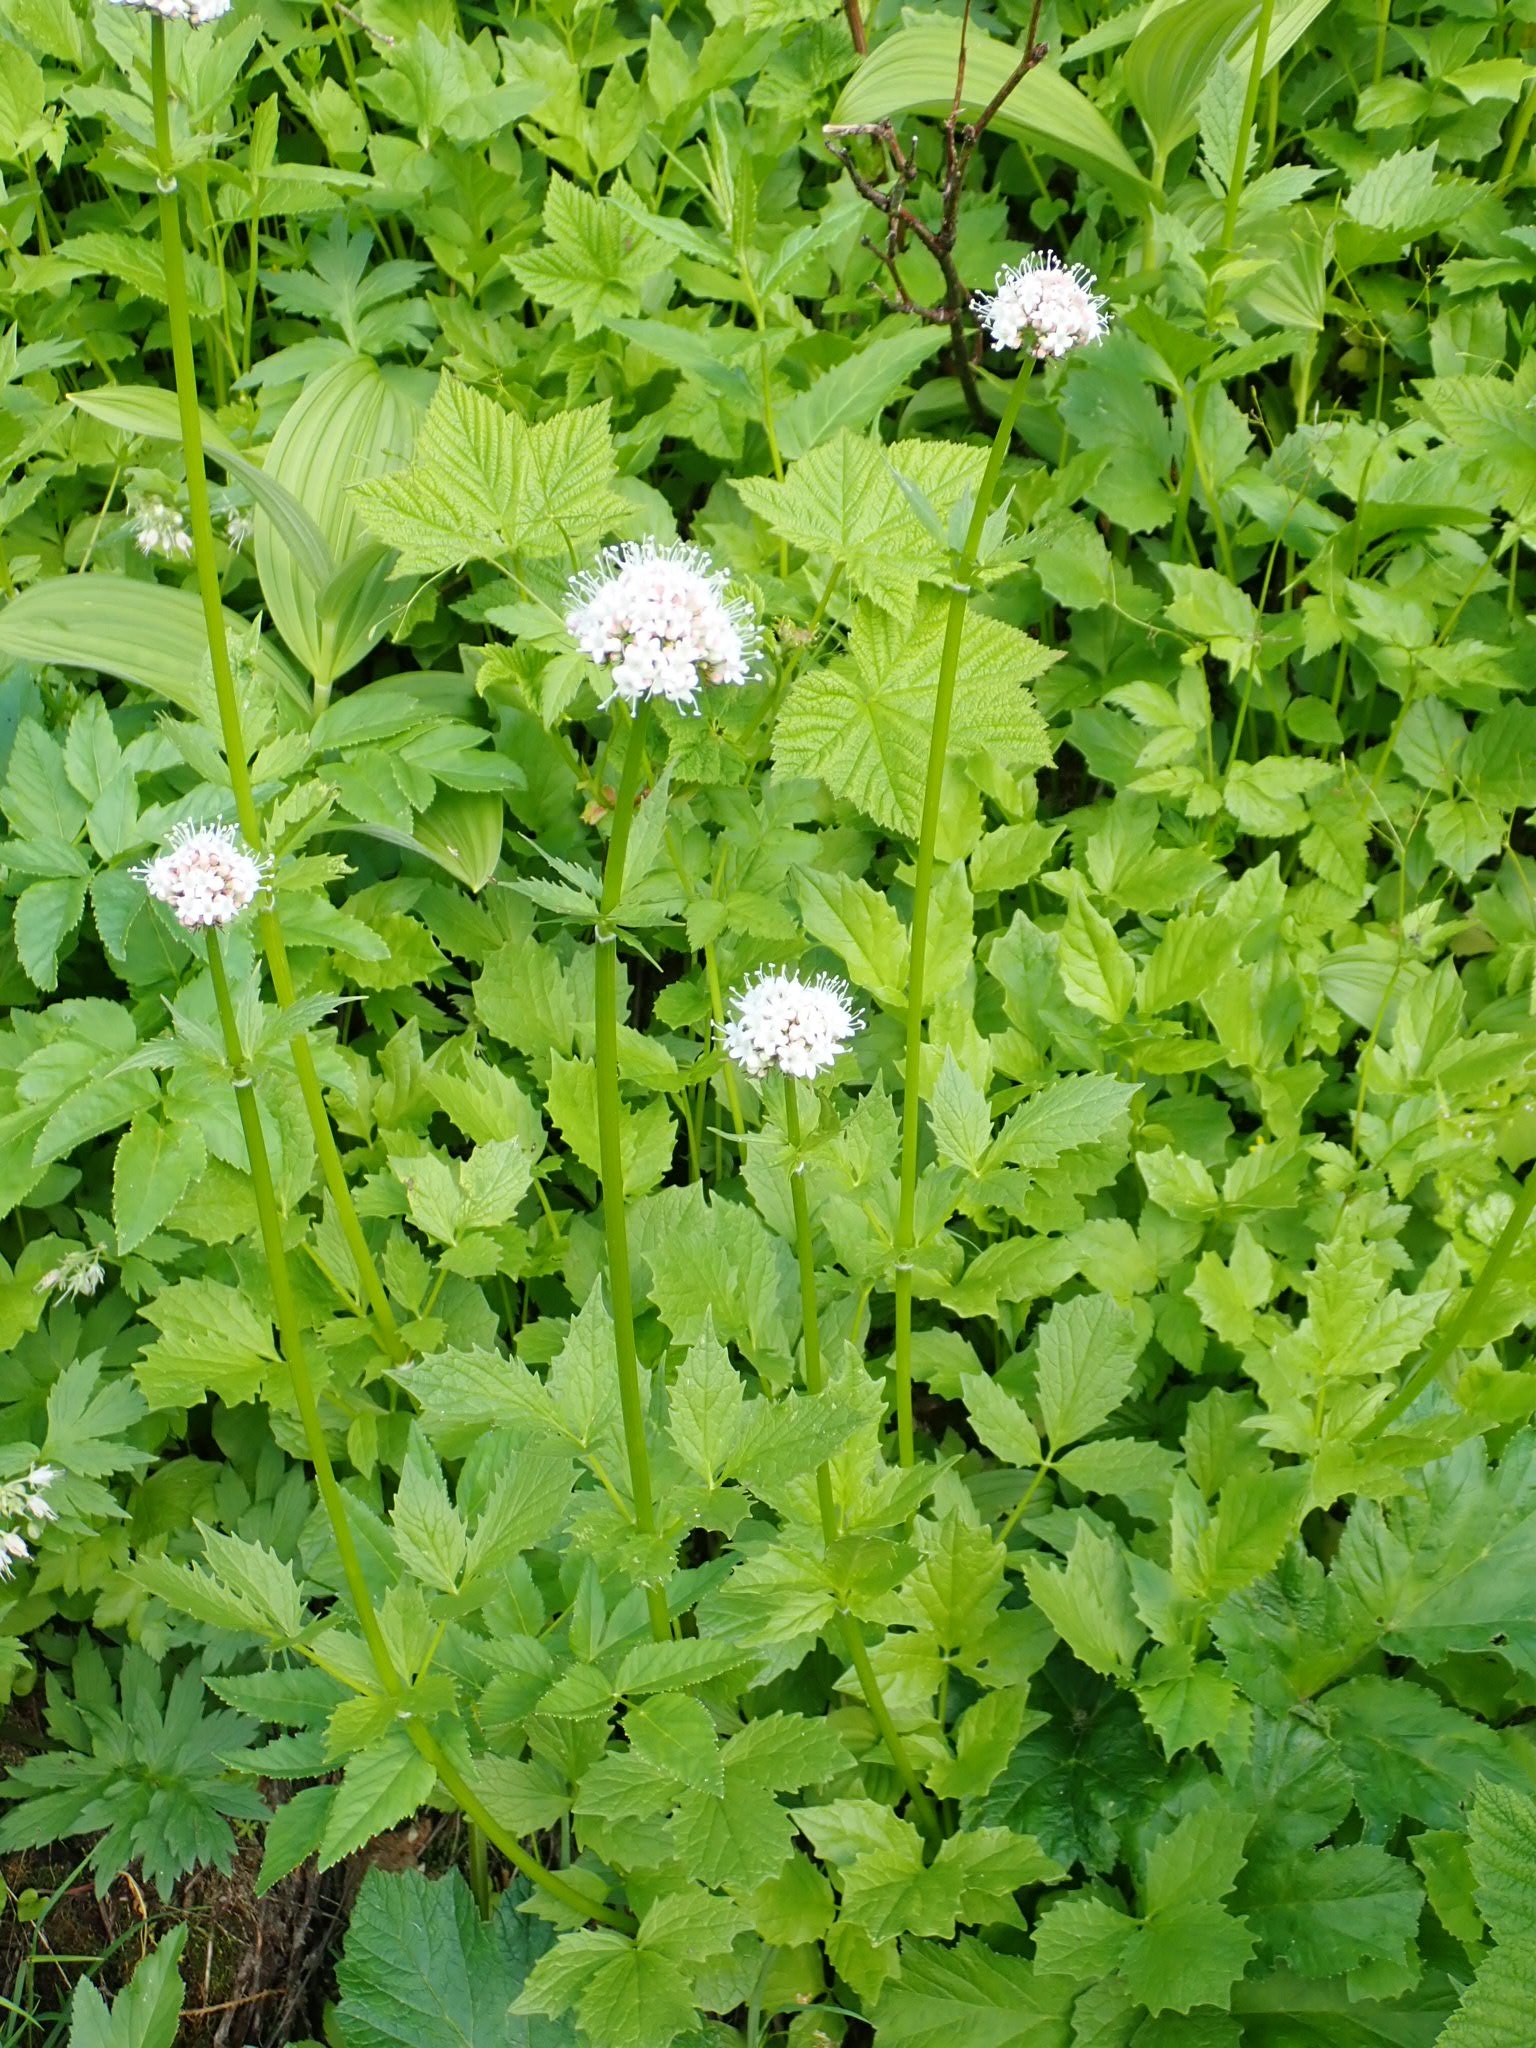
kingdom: Plantae
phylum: Tracheophyta
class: Magnoliopsida
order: Dipsacales
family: Caprifoliaceae
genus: Valeriana
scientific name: Valeriana sitchensis
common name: Pacific valerian
